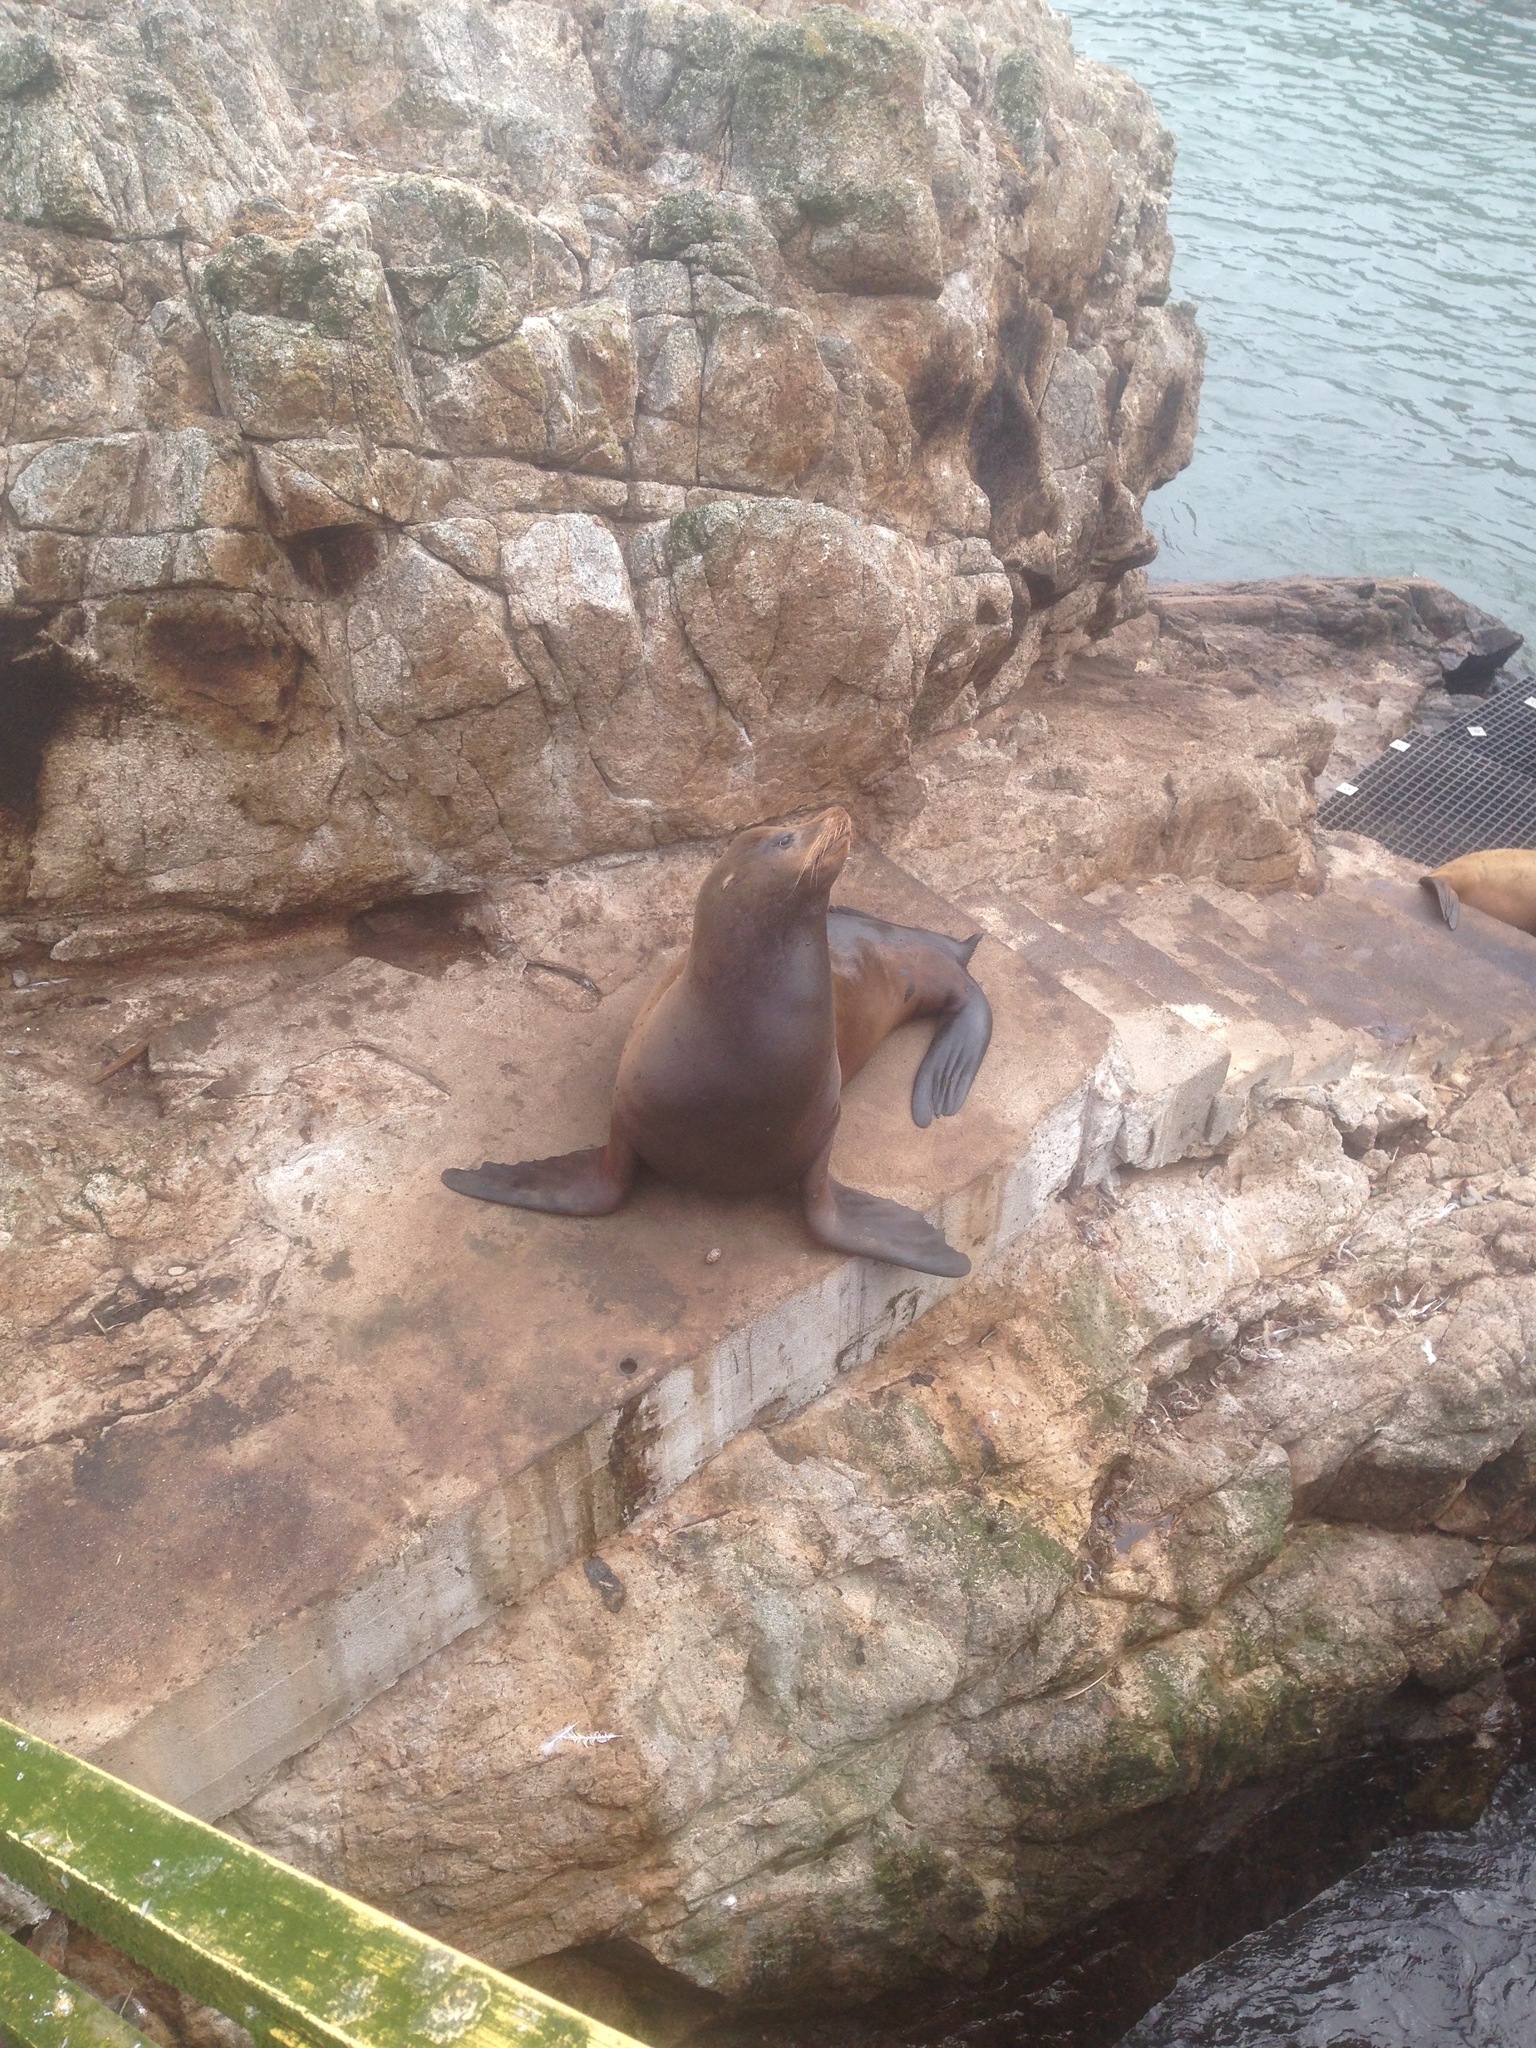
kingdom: Animalia
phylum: Chordata
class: Mammalia
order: Carnivora
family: Otariidae
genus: Zalophus
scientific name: Zalophus californianus
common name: California sea lion
